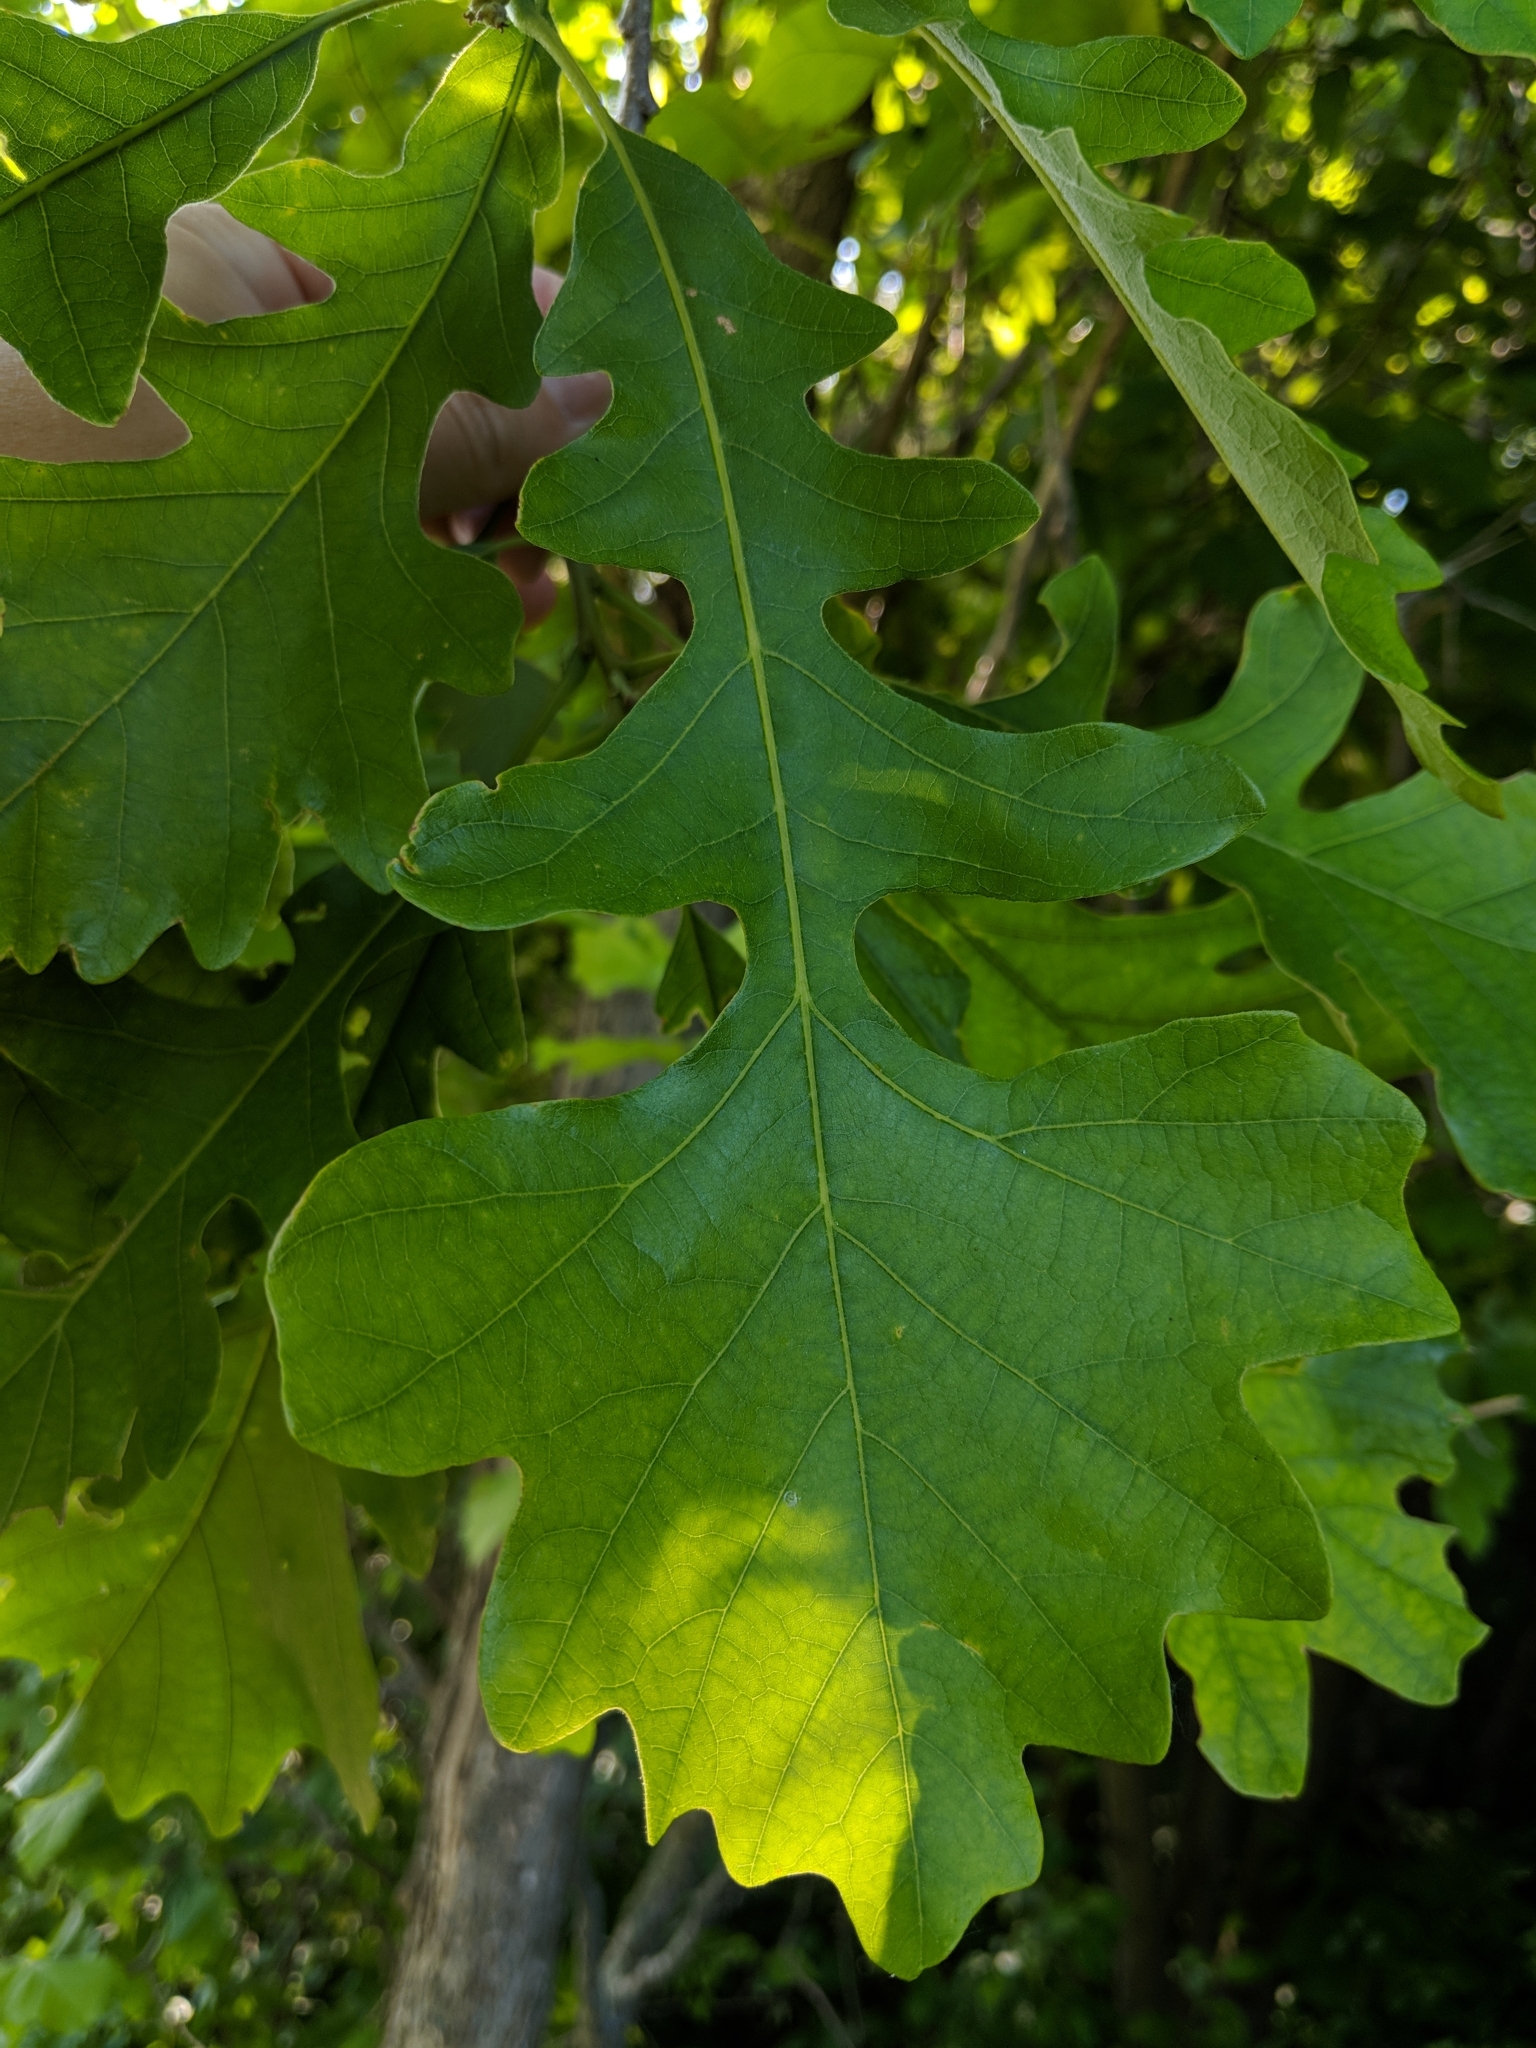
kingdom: Plantae
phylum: Tracheophyta
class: Magnoliopsida
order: Fagales
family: Fagaceae
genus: Quercus
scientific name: Quercus macrocarpa
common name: Bur oak
